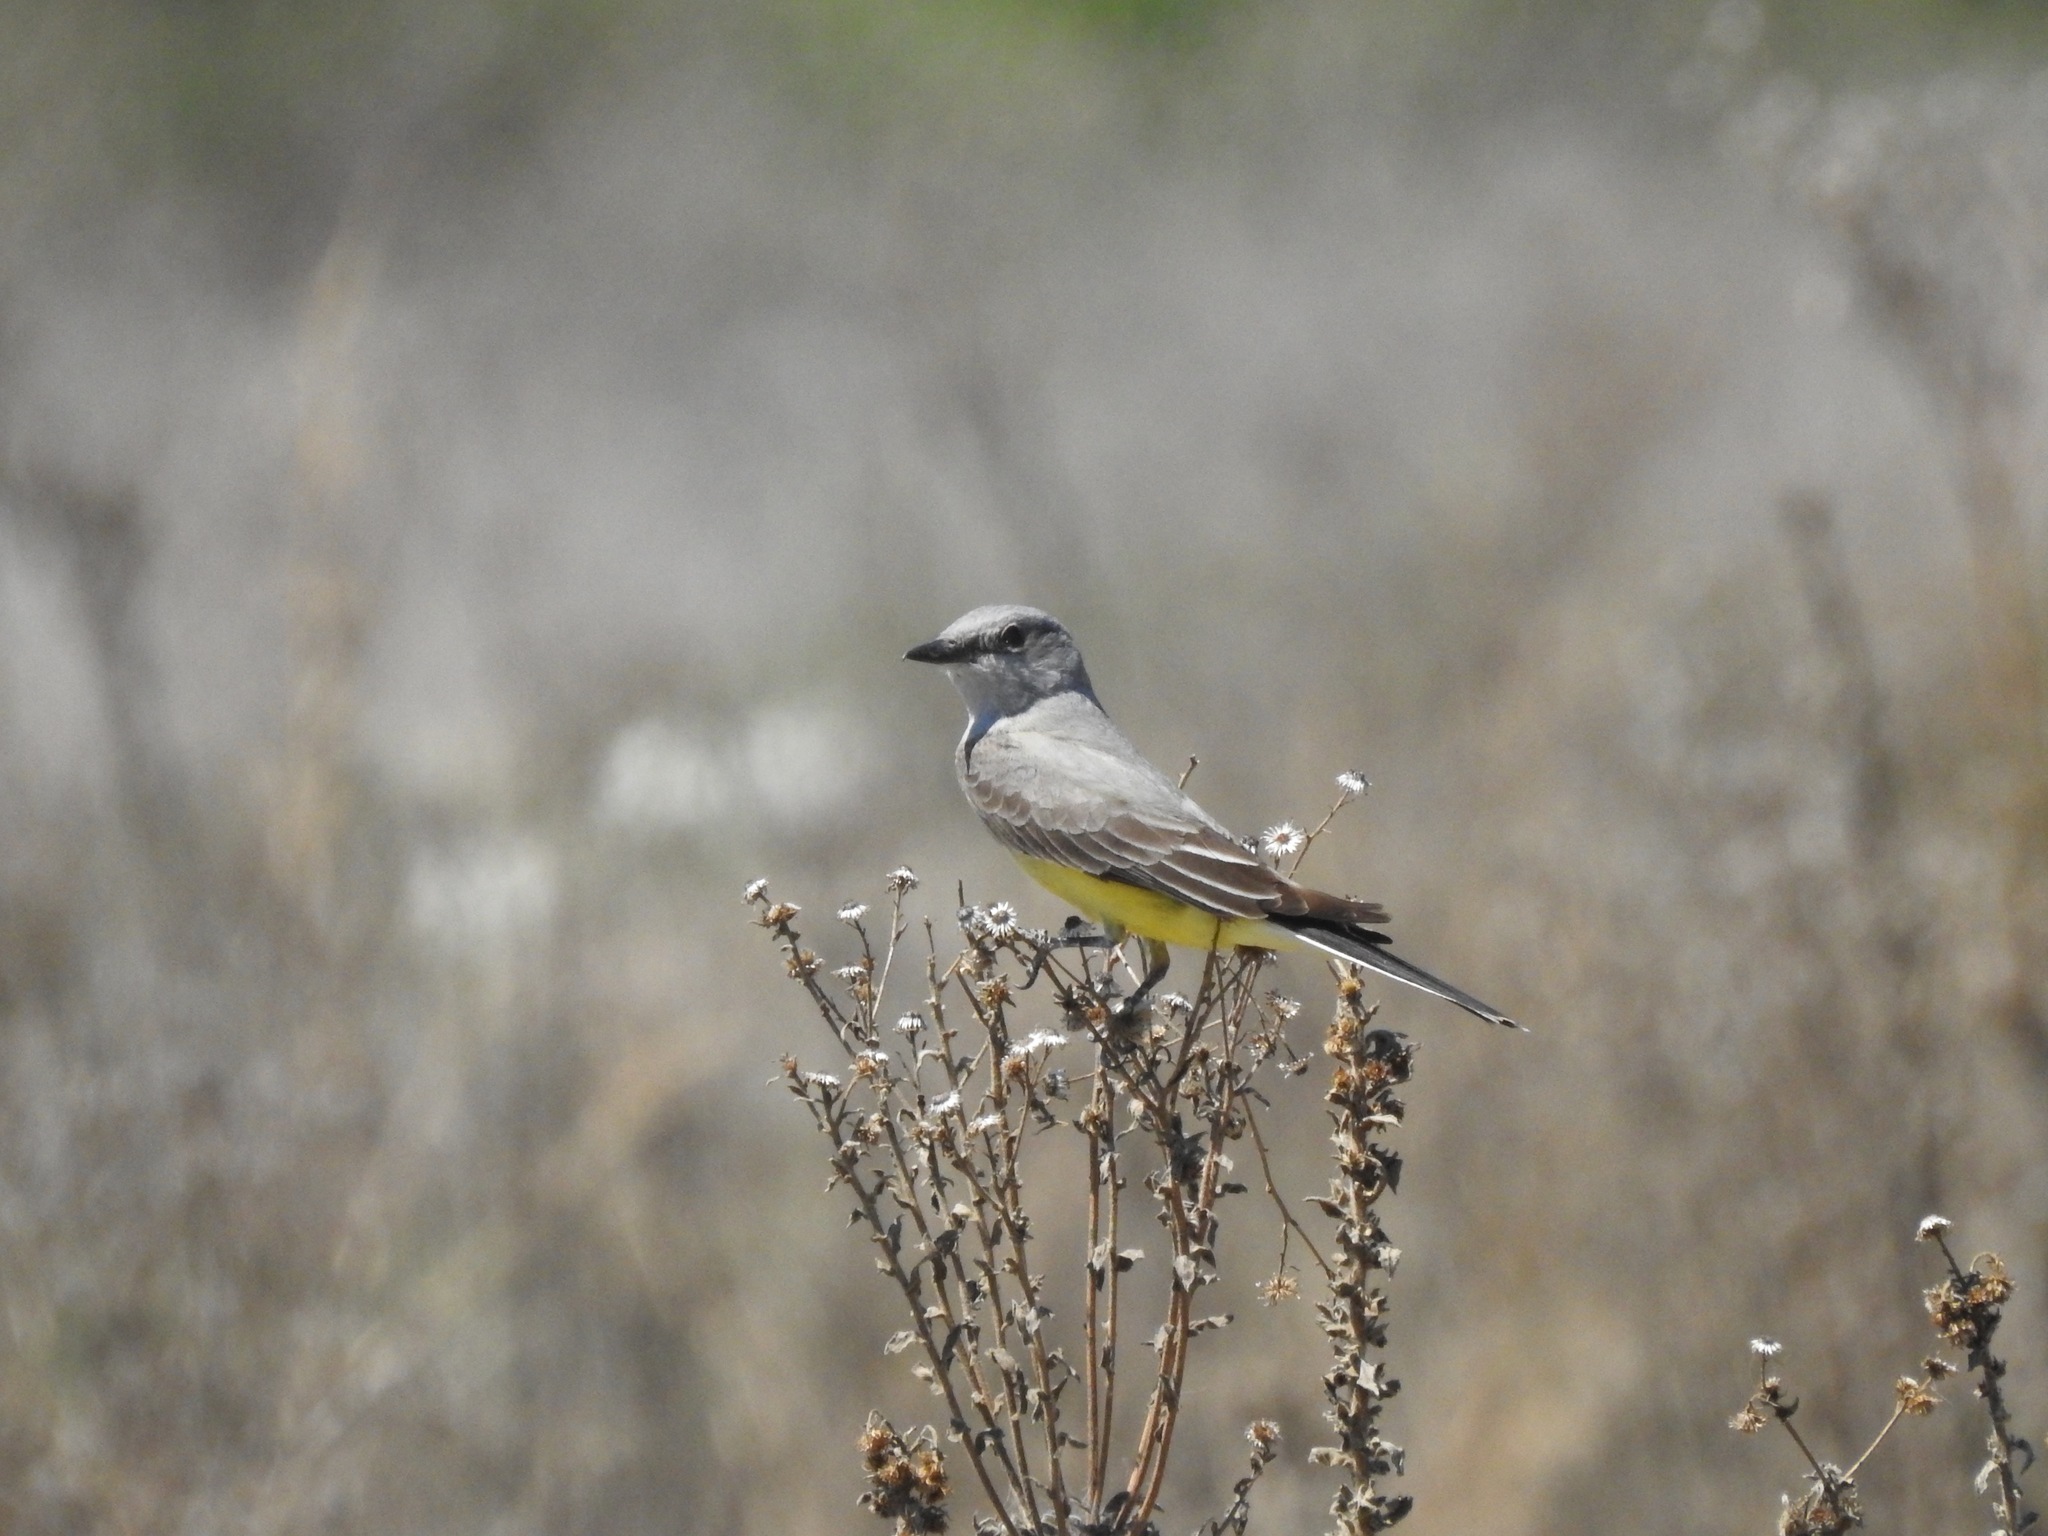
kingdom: Animalia
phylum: Chordata
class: Aves
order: Passeriformes
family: Tyrannidae
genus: Tyrannus
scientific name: Tyrannus verticalis
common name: Western kingbird
